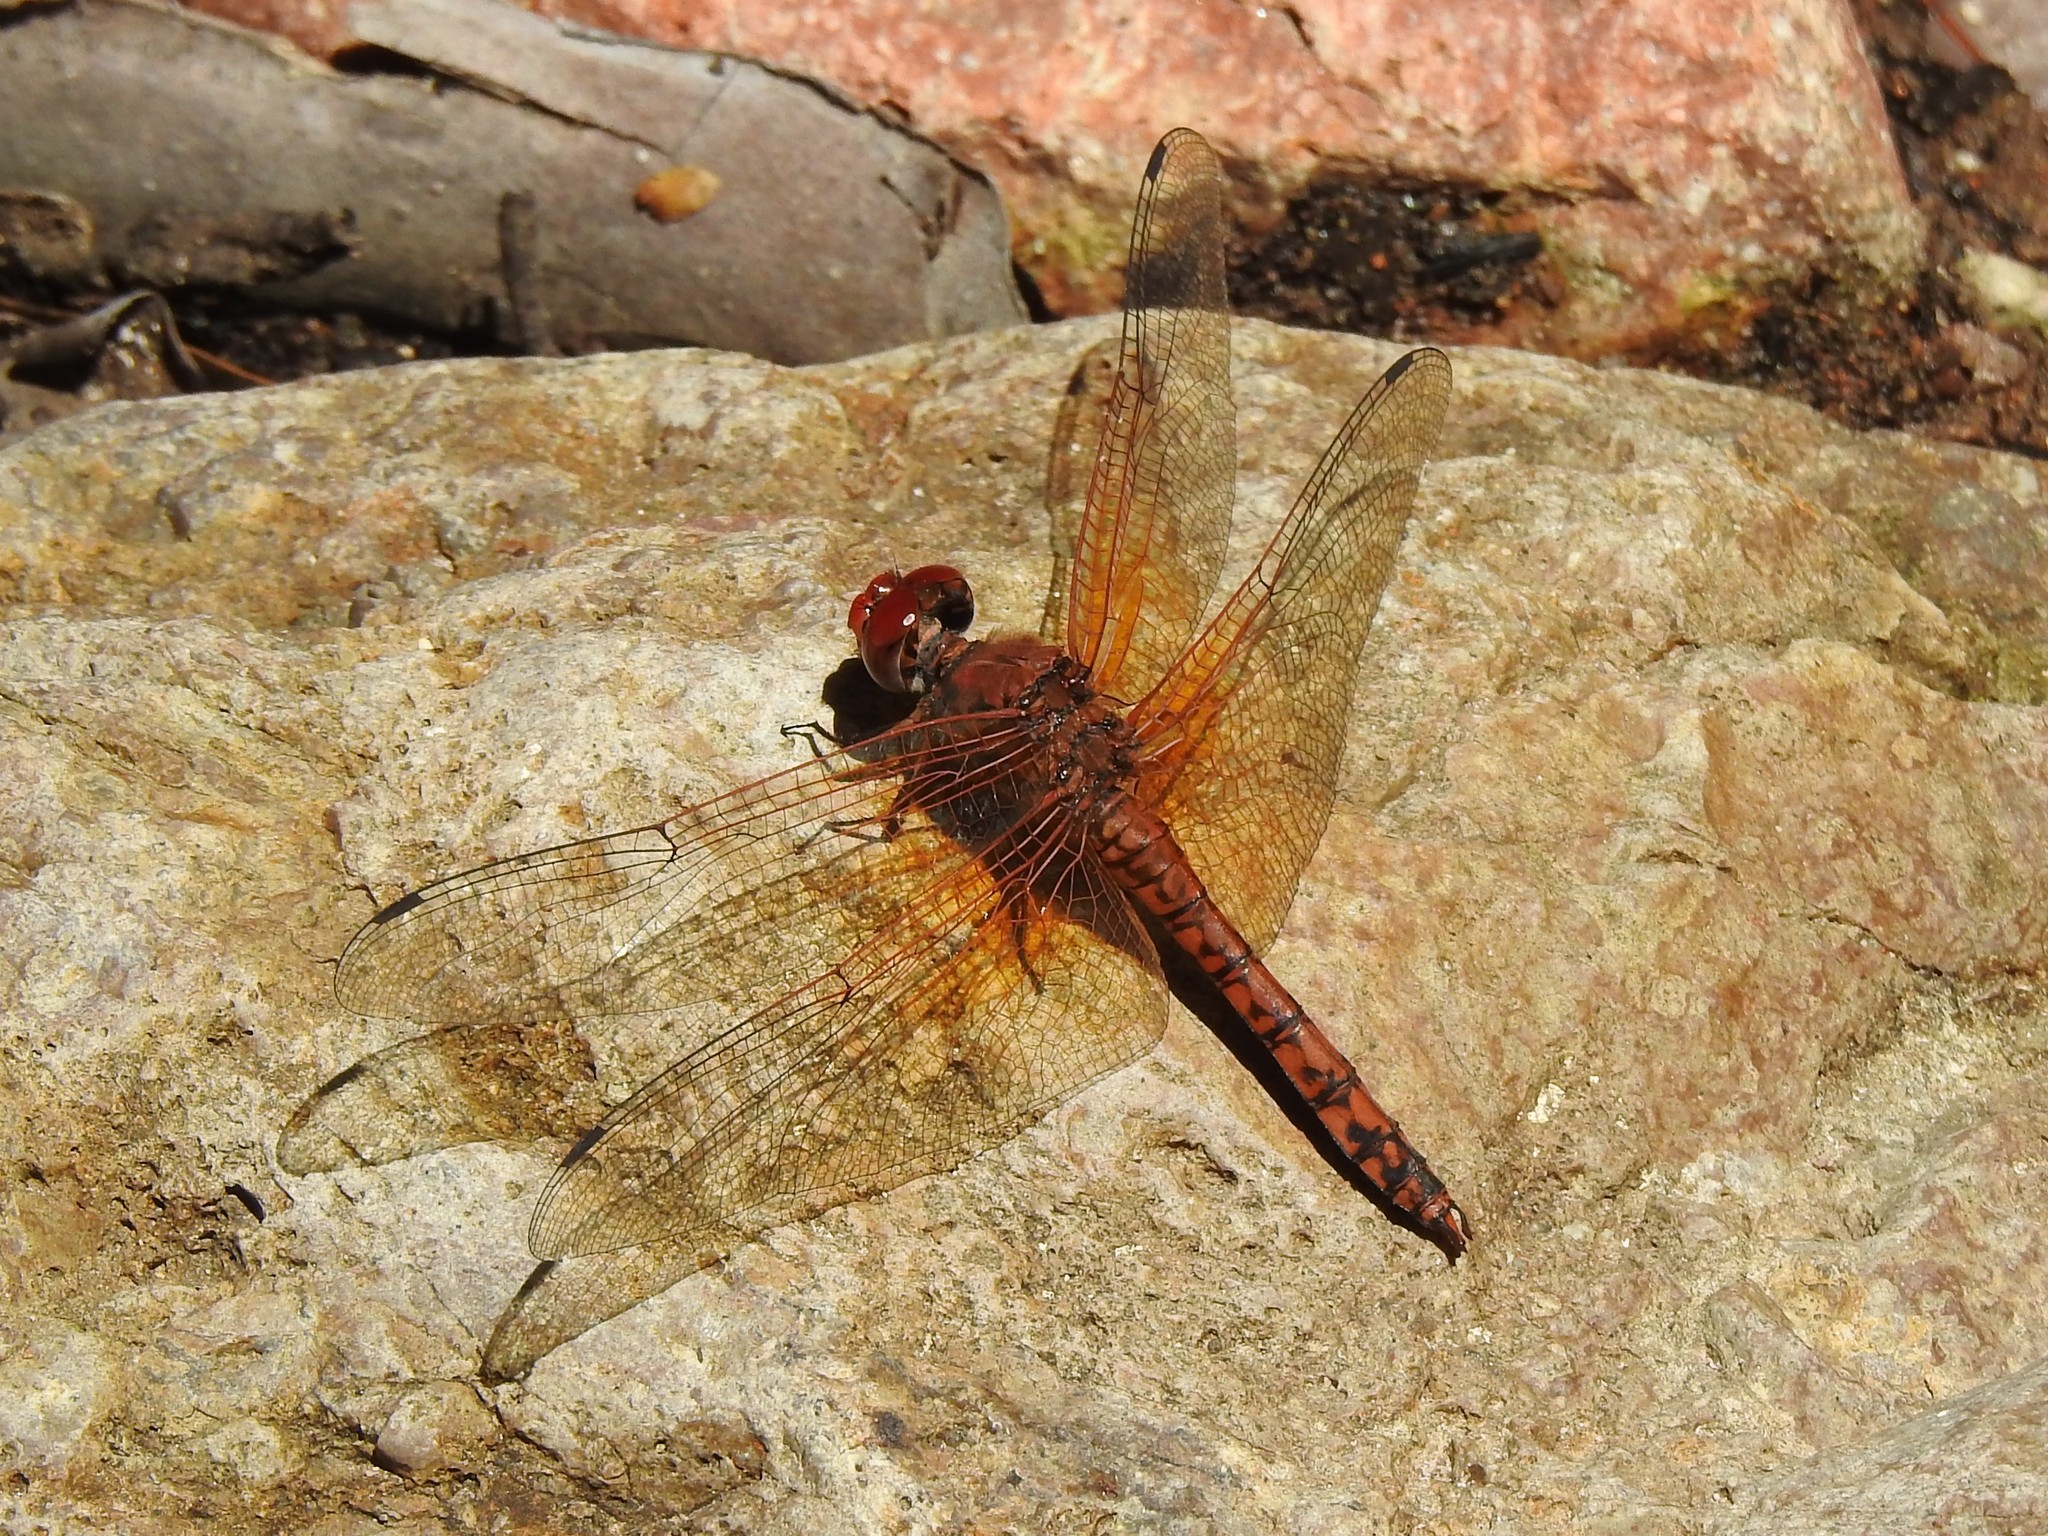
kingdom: Animalia
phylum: Arthropoda
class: Insecta
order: Odonata
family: Libellulidae
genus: Paltothemis
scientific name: Paltothemis lineatipes
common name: Red rock skimmer
